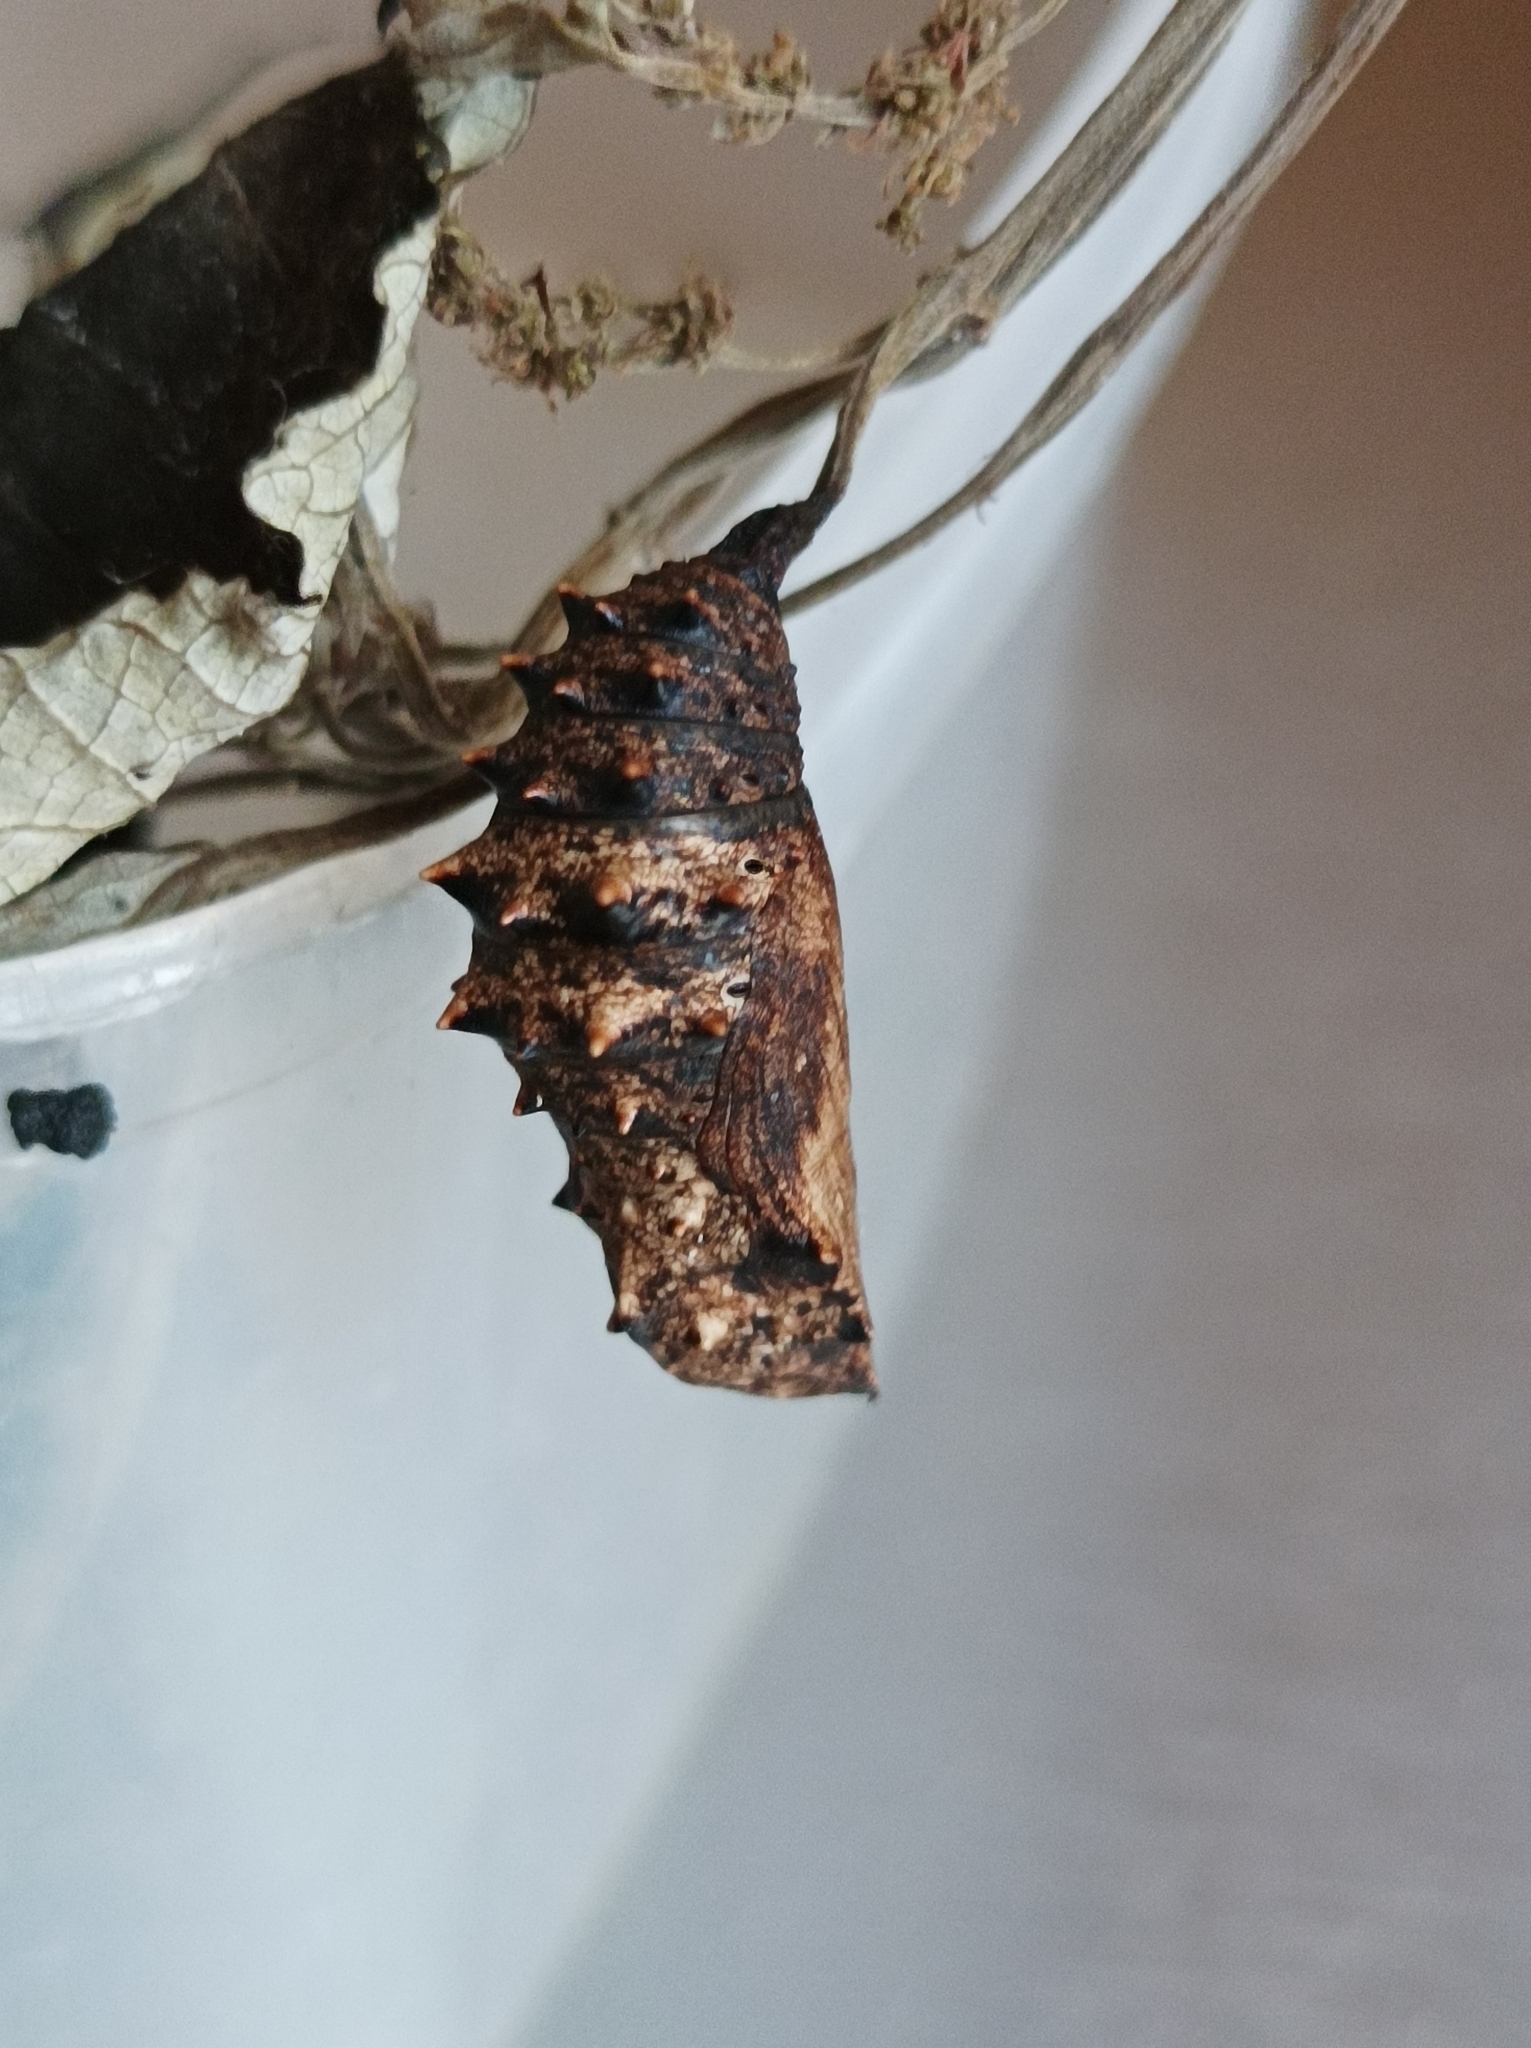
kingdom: Animalia
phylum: Arthropoda
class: Insecta
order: Lepidoptera
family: Nymphalidae
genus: Hypolimnas
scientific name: Hypolimnas octocula
